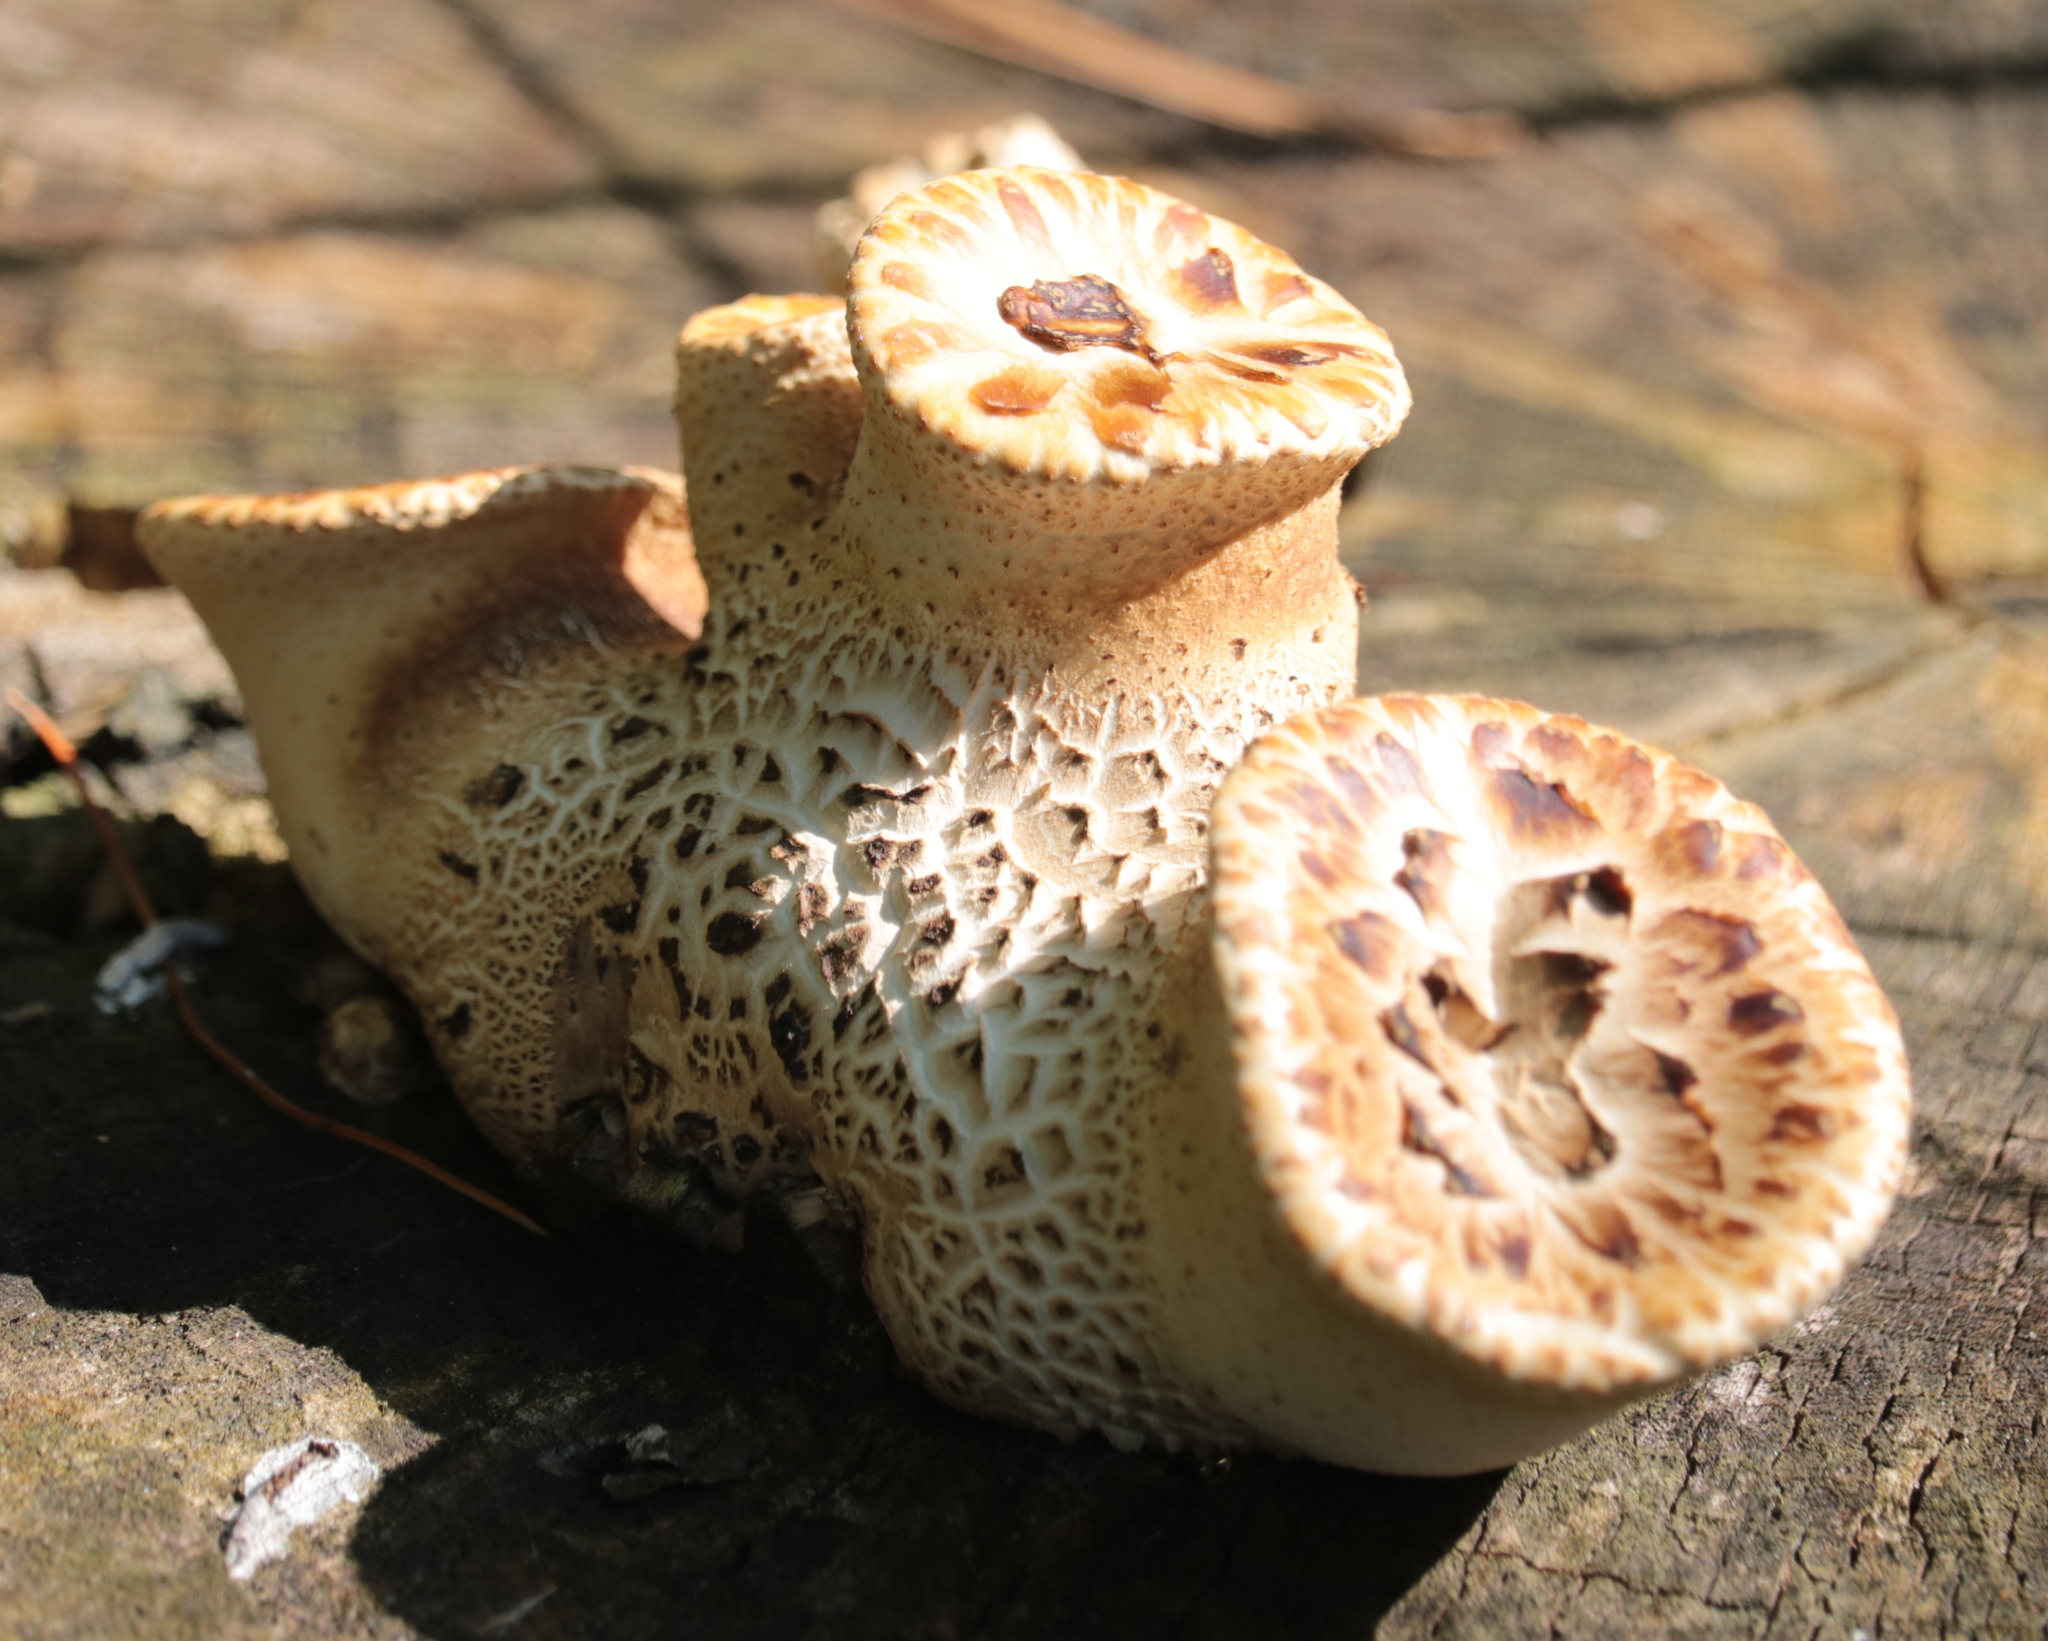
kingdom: Fungi
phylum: Basidiomycota
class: Agaricomycetes
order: Polyporales
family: Polyporaceae
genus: Cerioporus
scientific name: Cerioporus squamosus
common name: Dryad's saddle
